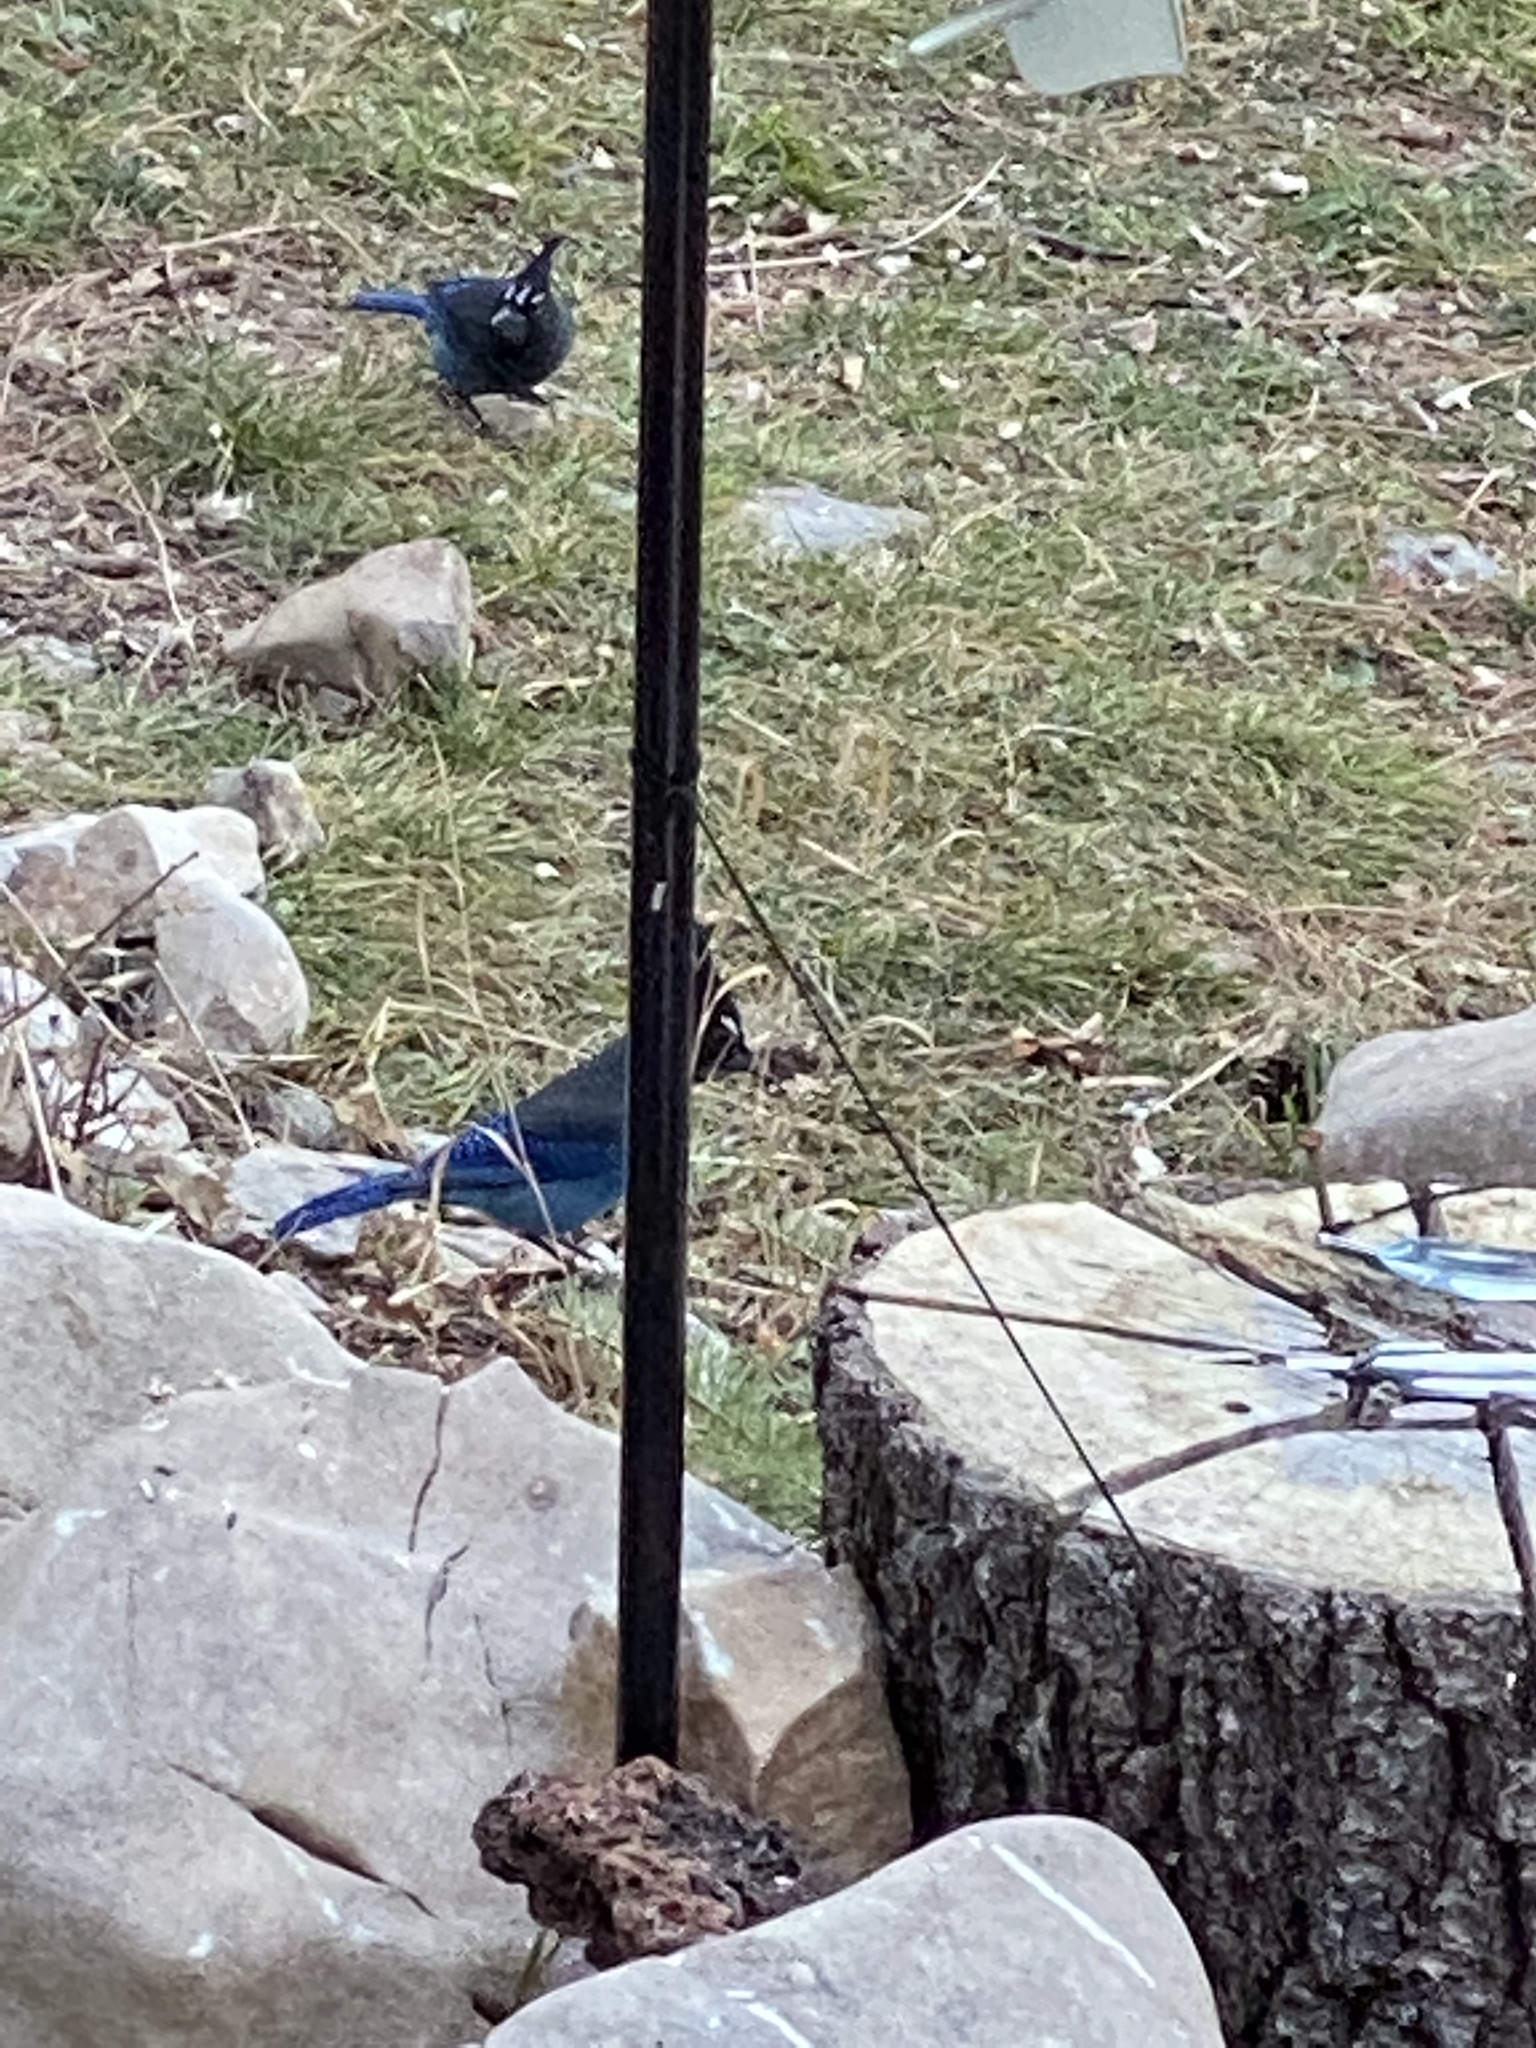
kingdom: Animalia
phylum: Chordata
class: Aves
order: Passeriformes
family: Corvidae
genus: Cyanocitta
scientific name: Cyanocitta stelleri
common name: Steller's jay
